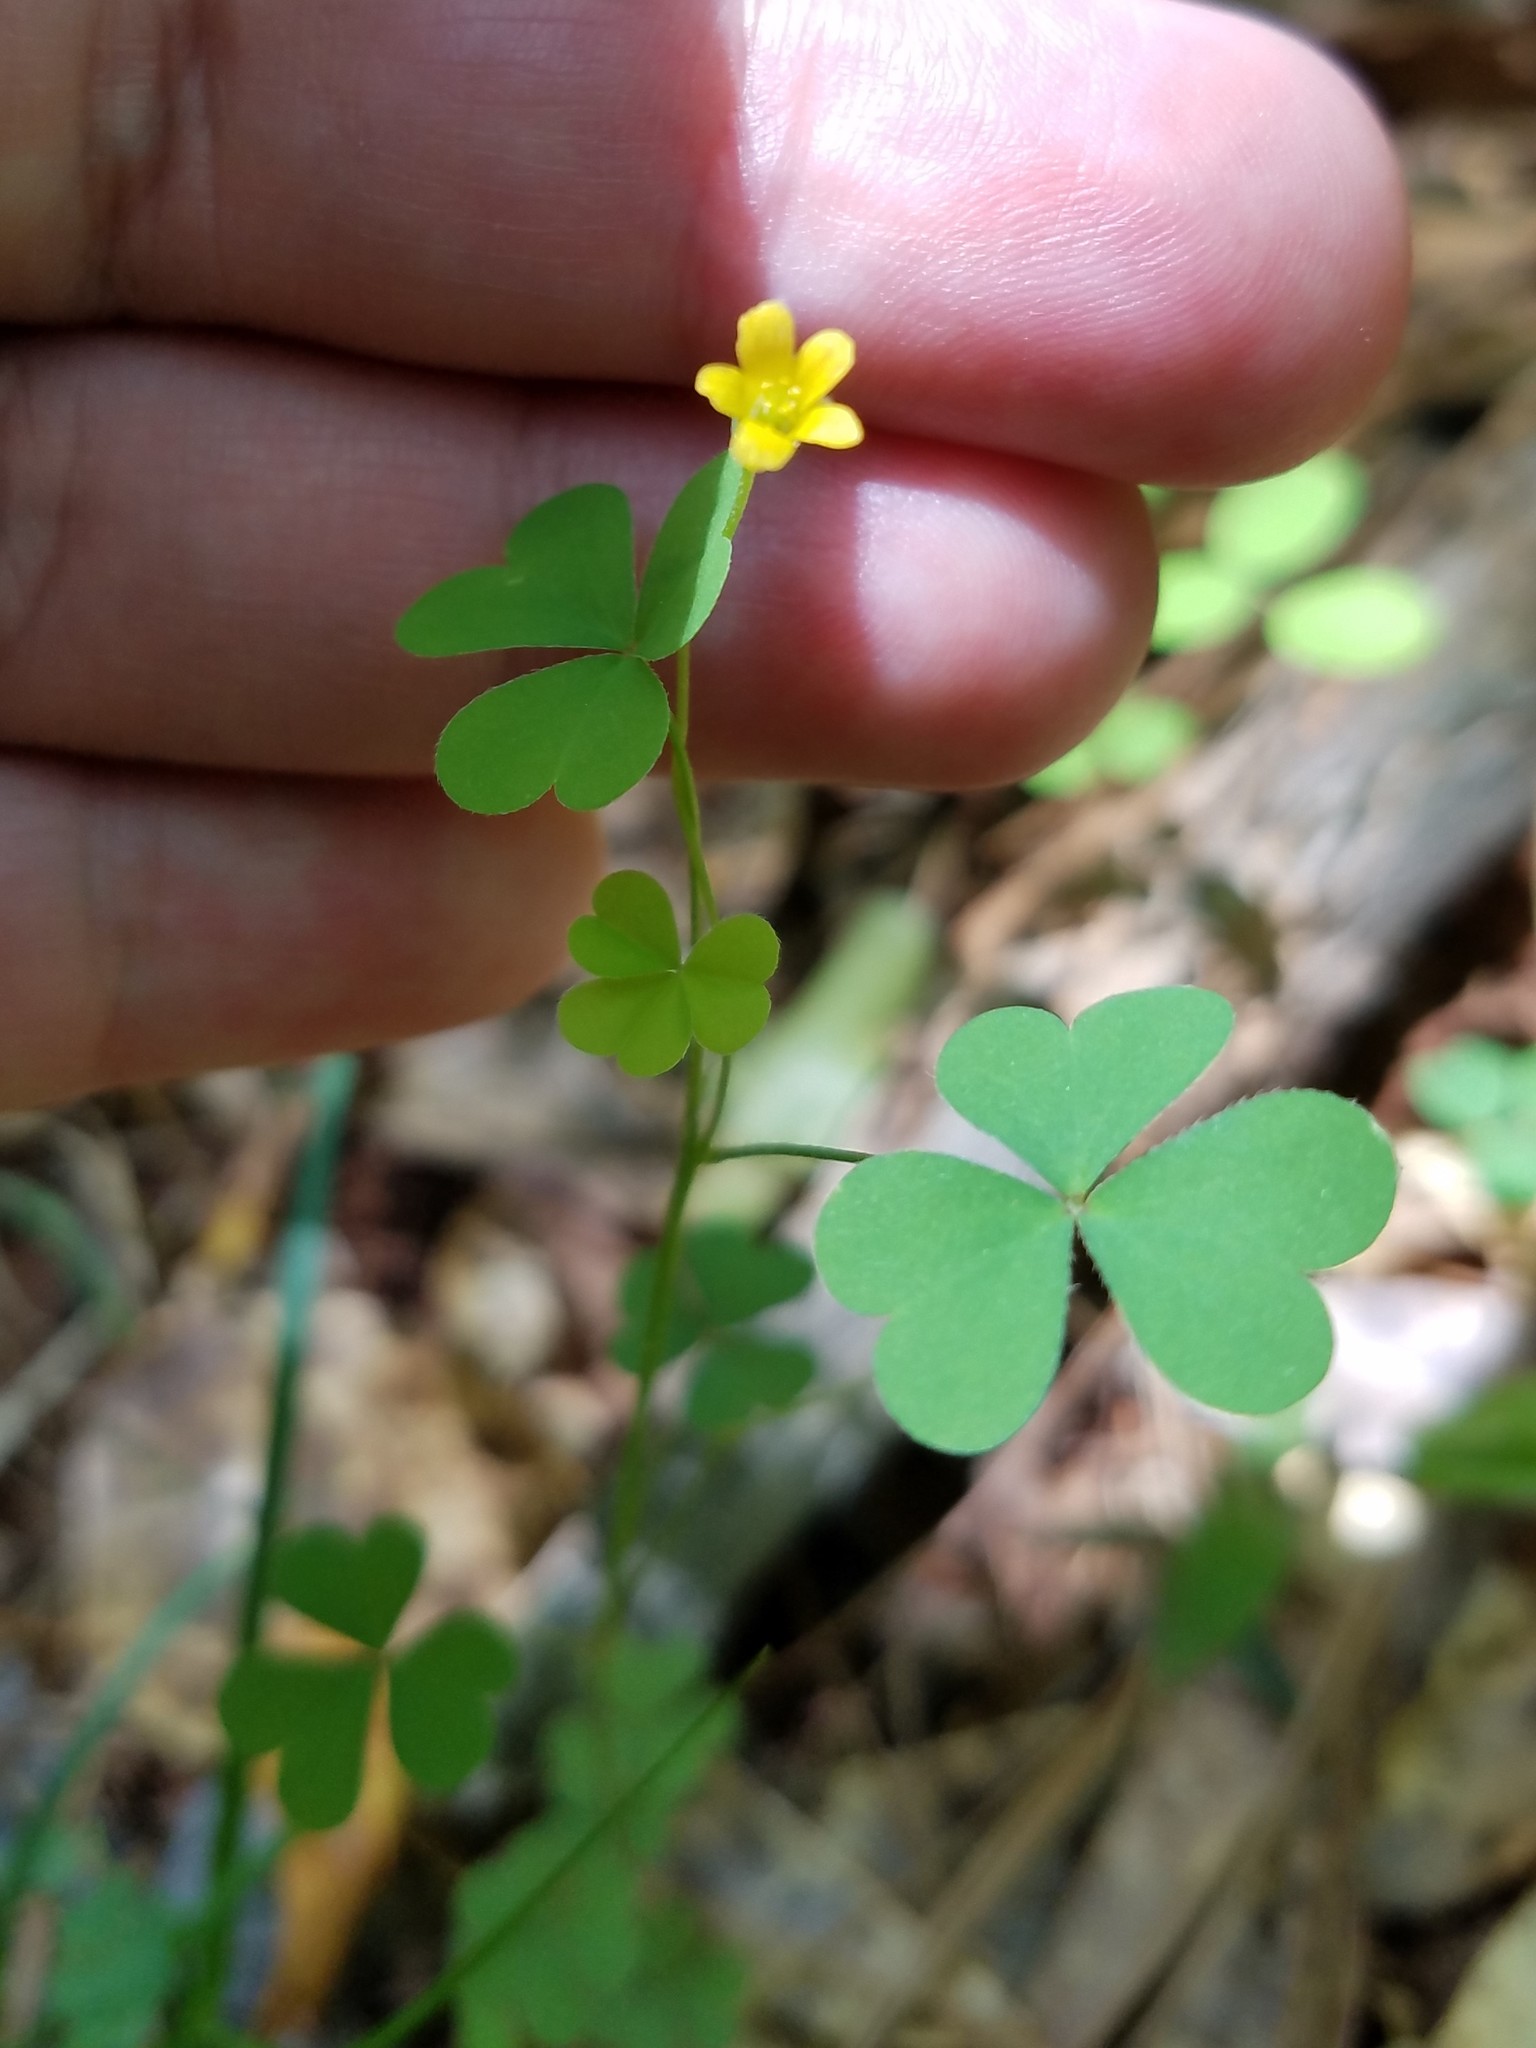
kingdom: Plantae
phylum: Tracheophyta
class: Magnoliopsida
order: Oxalidales
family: Oxalidaceae
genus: Oxalis
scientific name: Oxalis florida
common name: Flowering yellow woodsorrel
